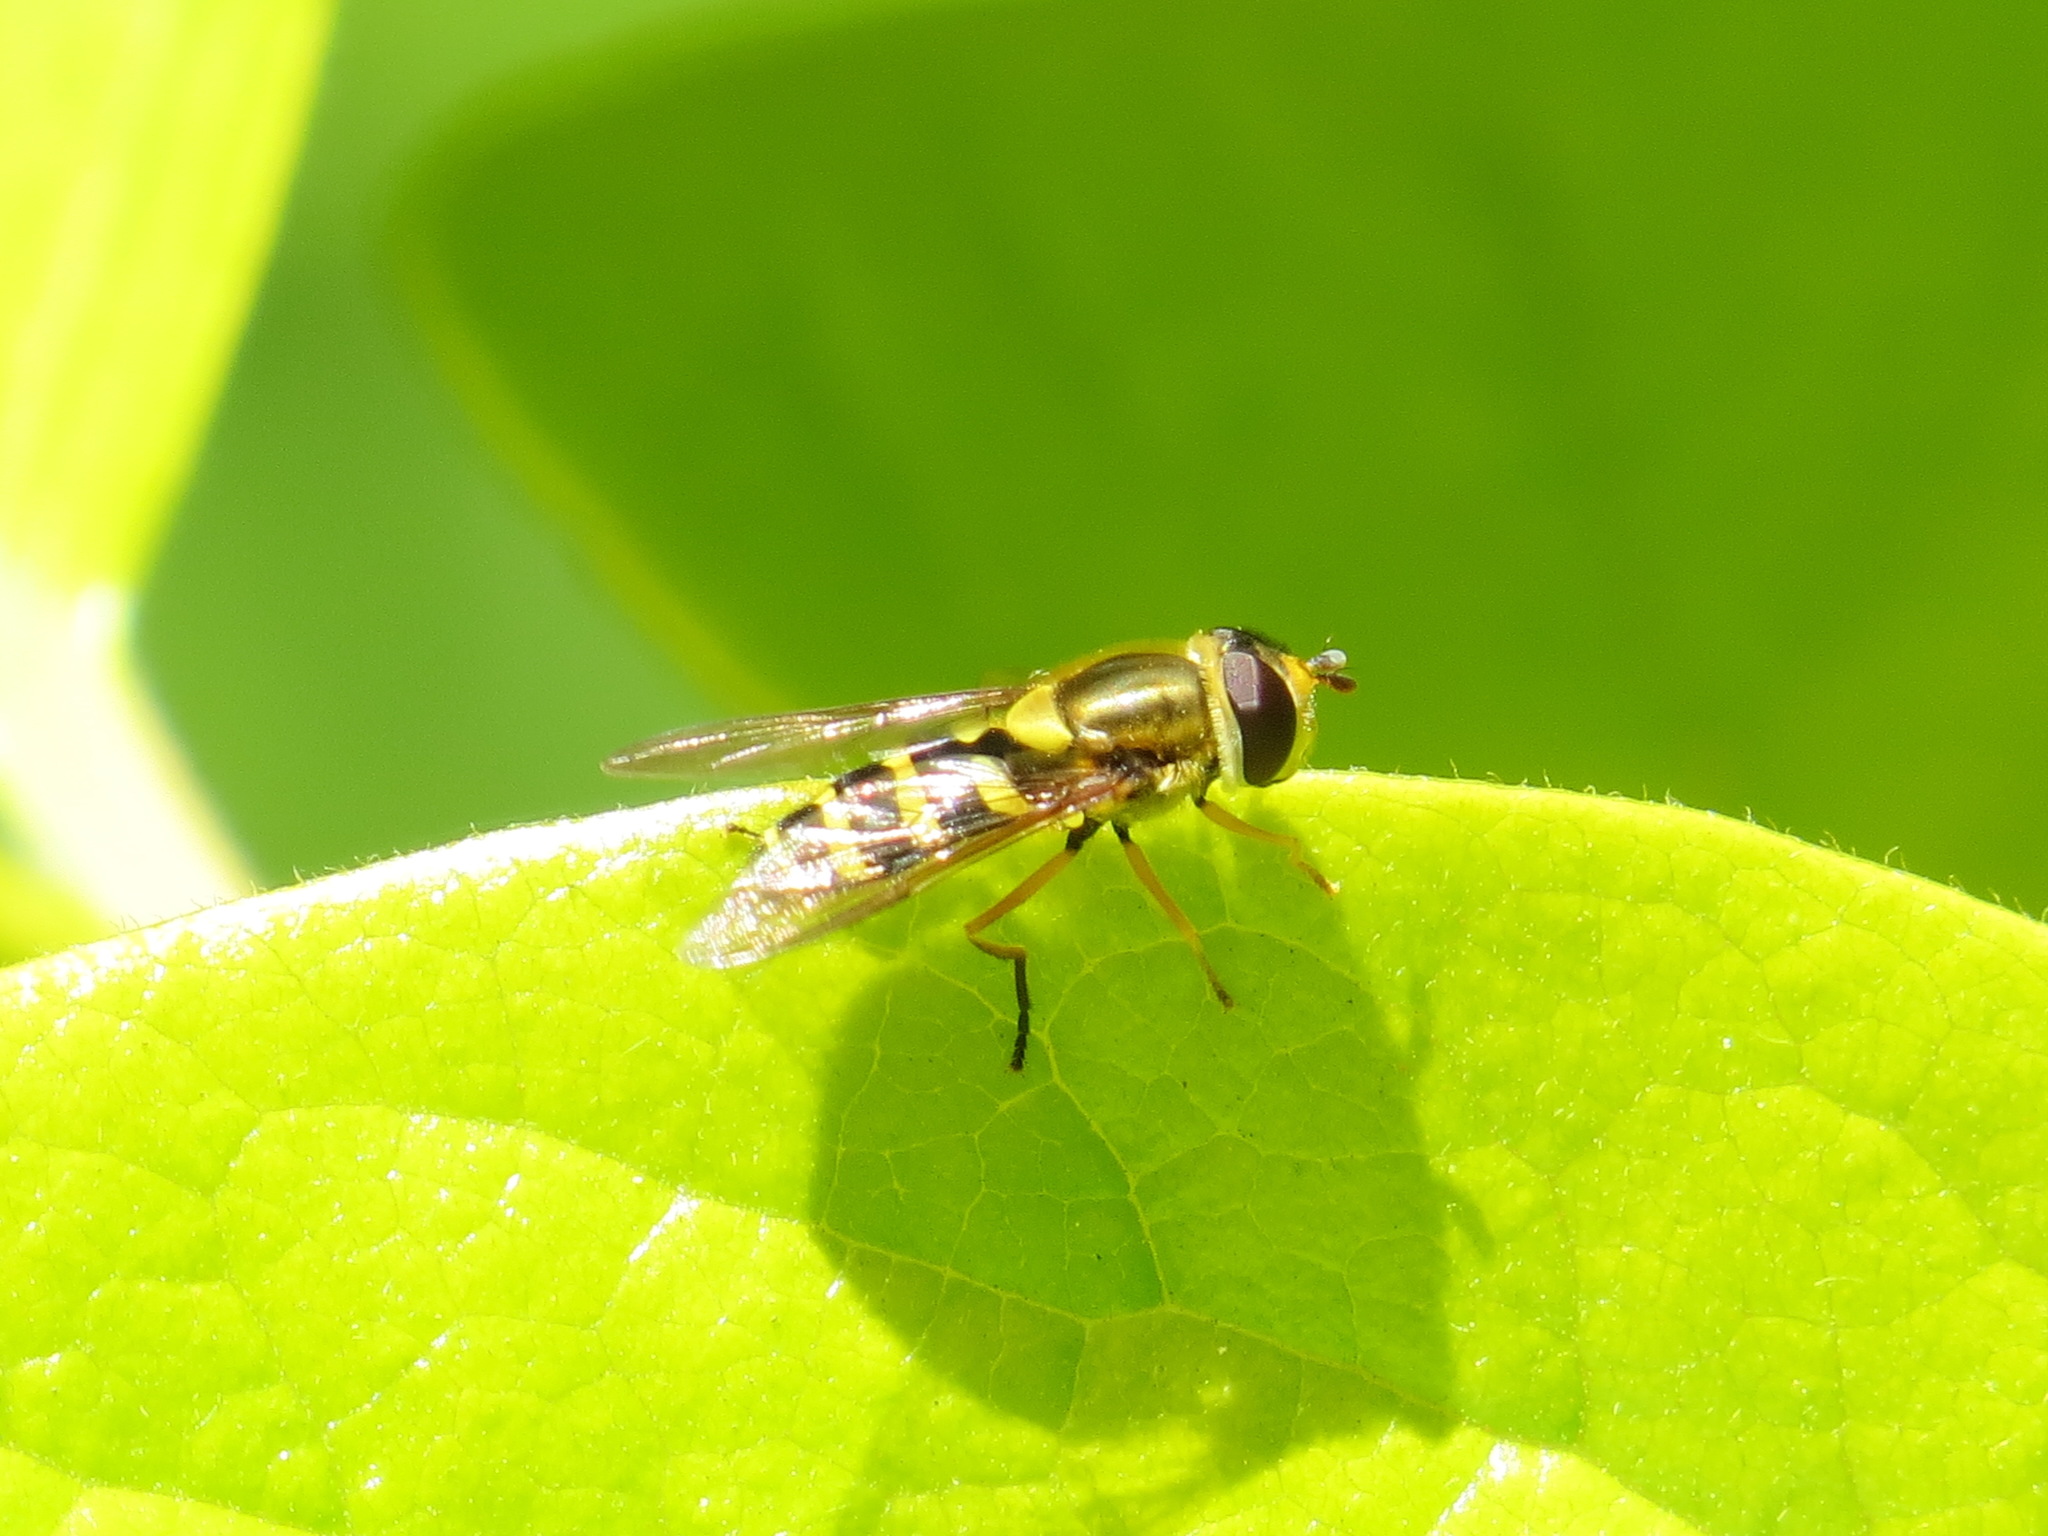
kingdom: Animalia
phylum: Arthropoda
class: Insecta
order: Diptera
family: Syrphidae
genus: Syrphus
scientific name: Syrphus opinator
